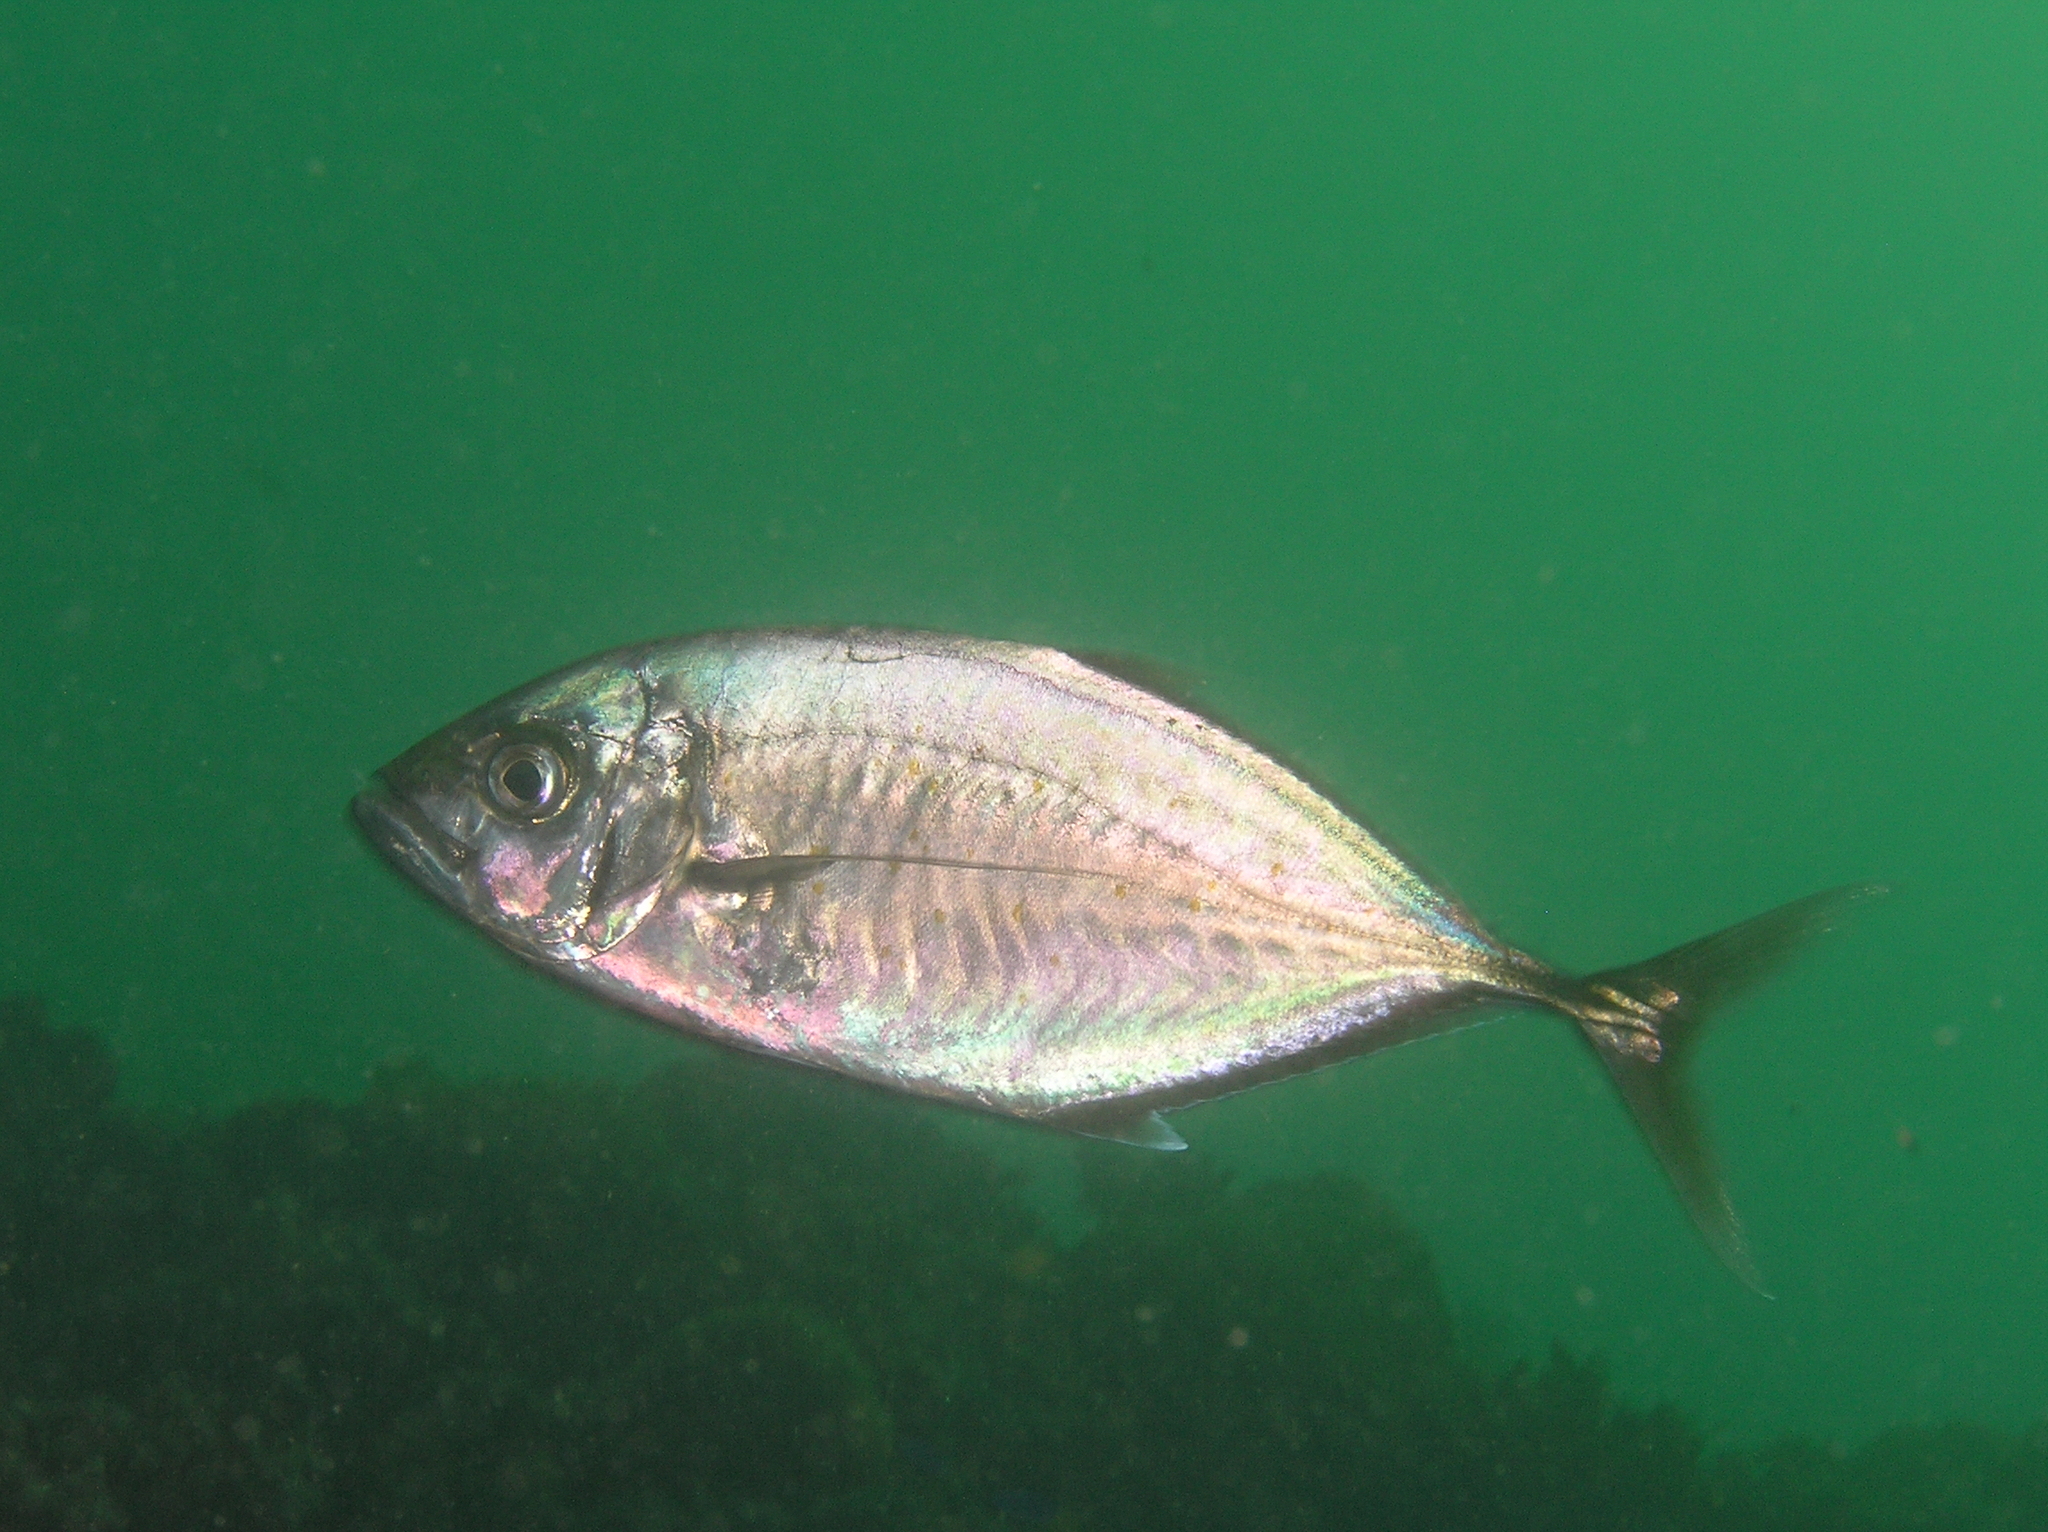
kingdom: Animalia
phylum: Chordata
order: Perciformes
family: Carangidae
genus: Craterognathus
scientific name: Craterognathus plagiotaenia
